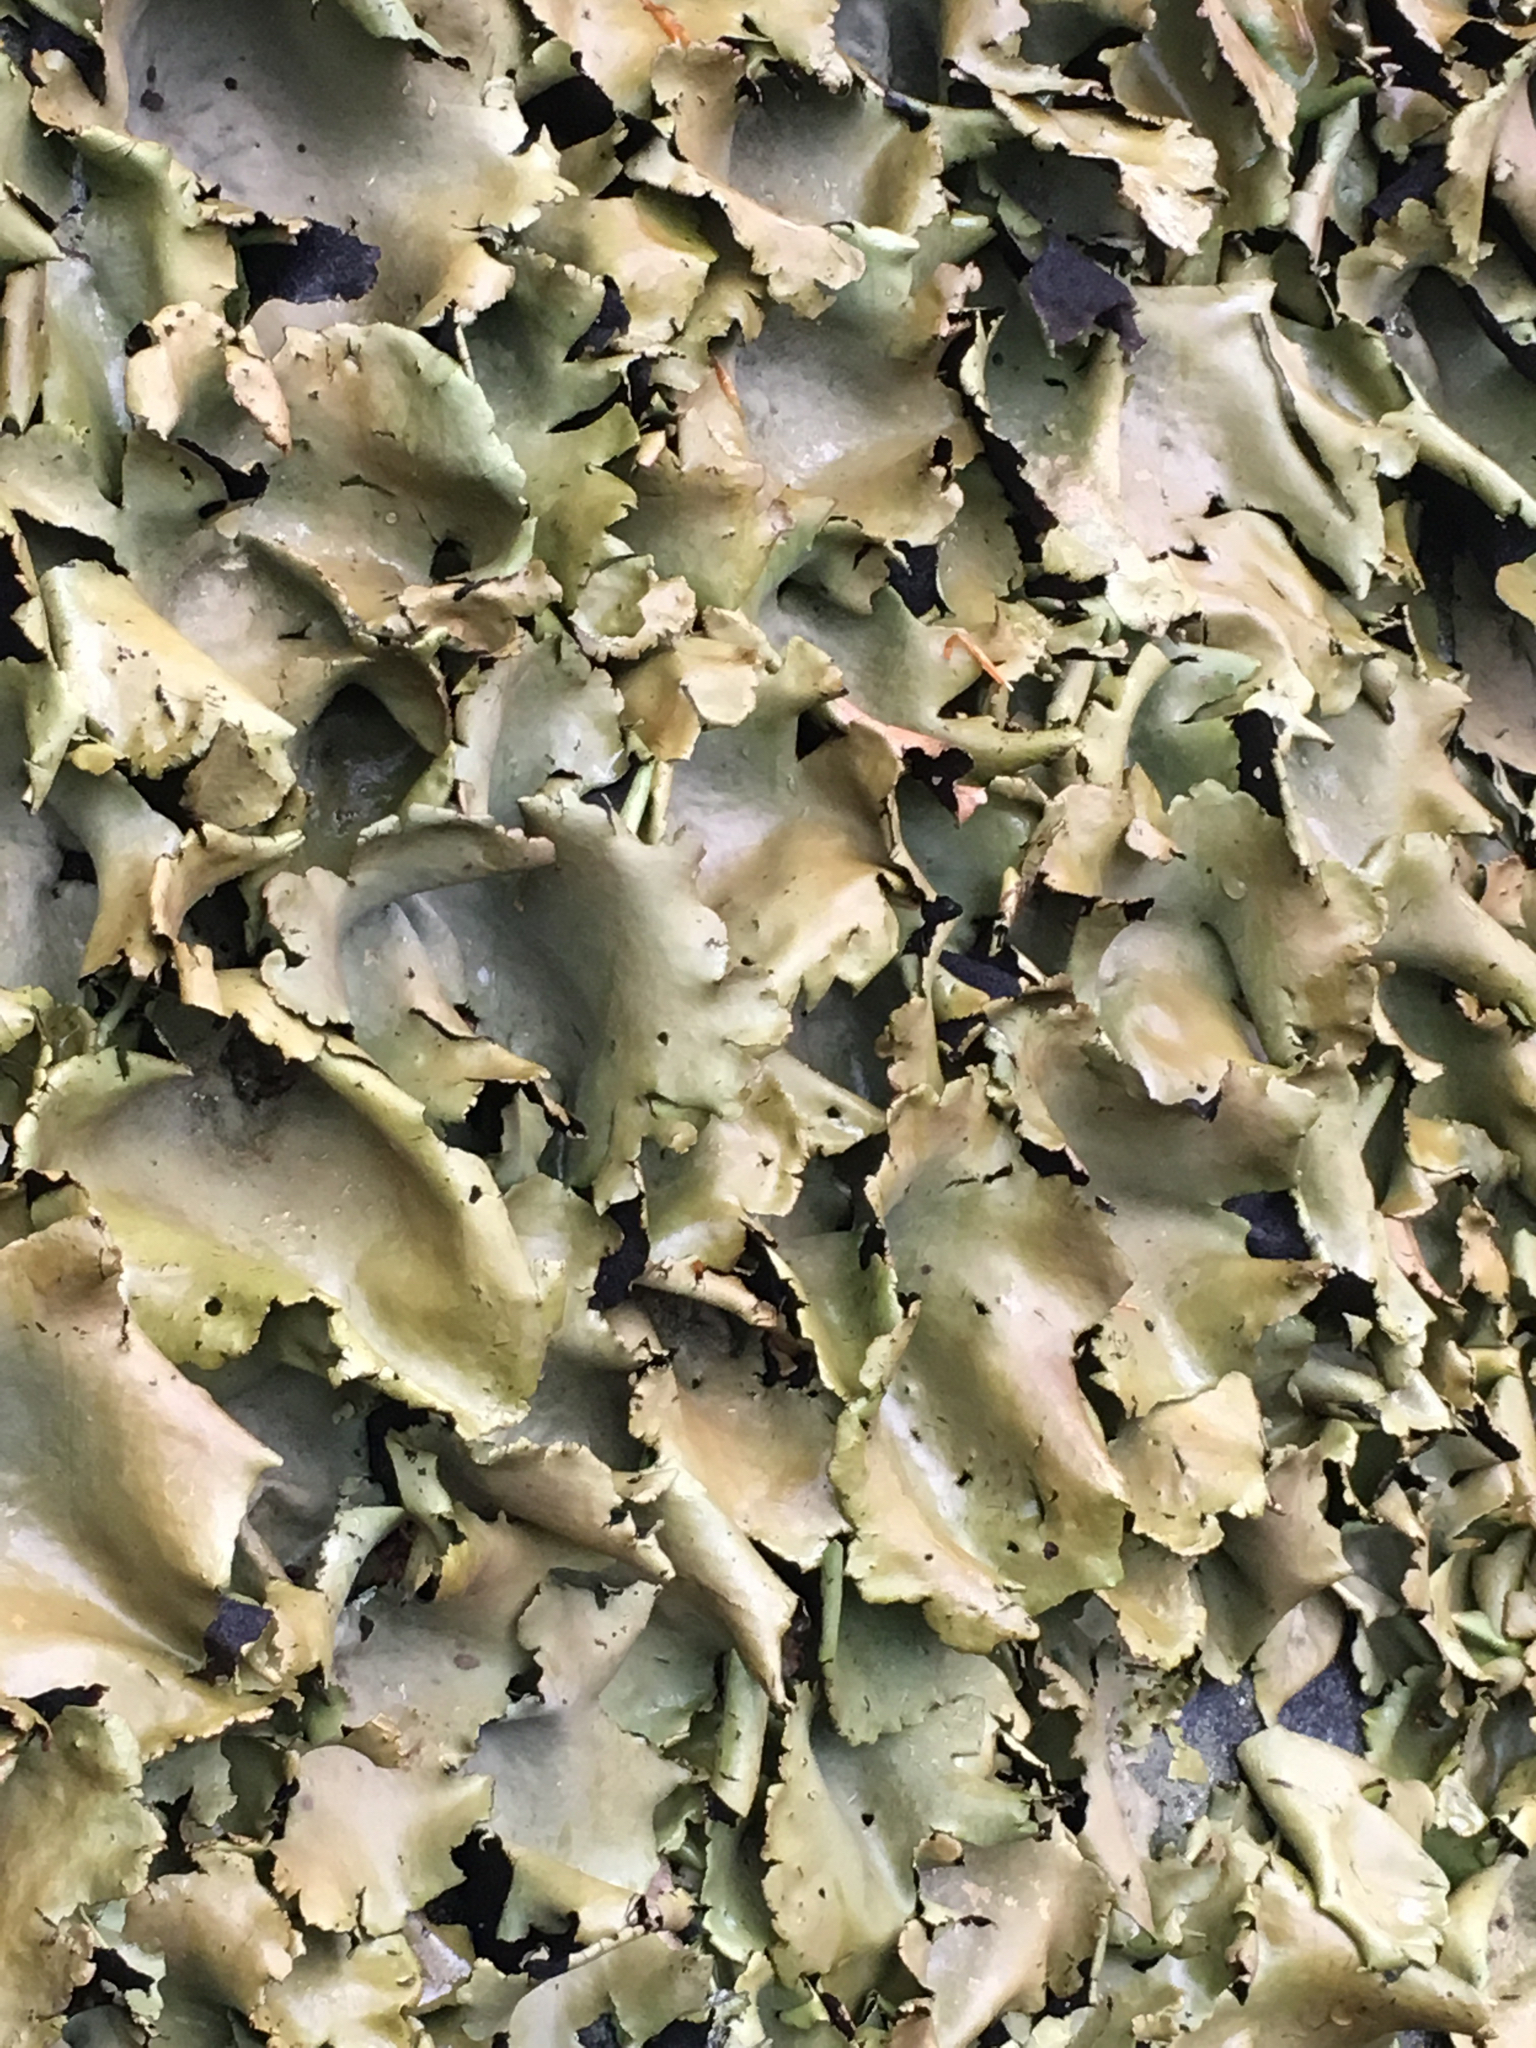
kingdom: Fungi
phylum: Ascomycota
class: Lecanoromycetes
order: Umbilicariales
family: Umbilicariaceae
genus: Umbilicaria
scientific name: Umbilicaria mammulata
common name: Smooth rock tripe
